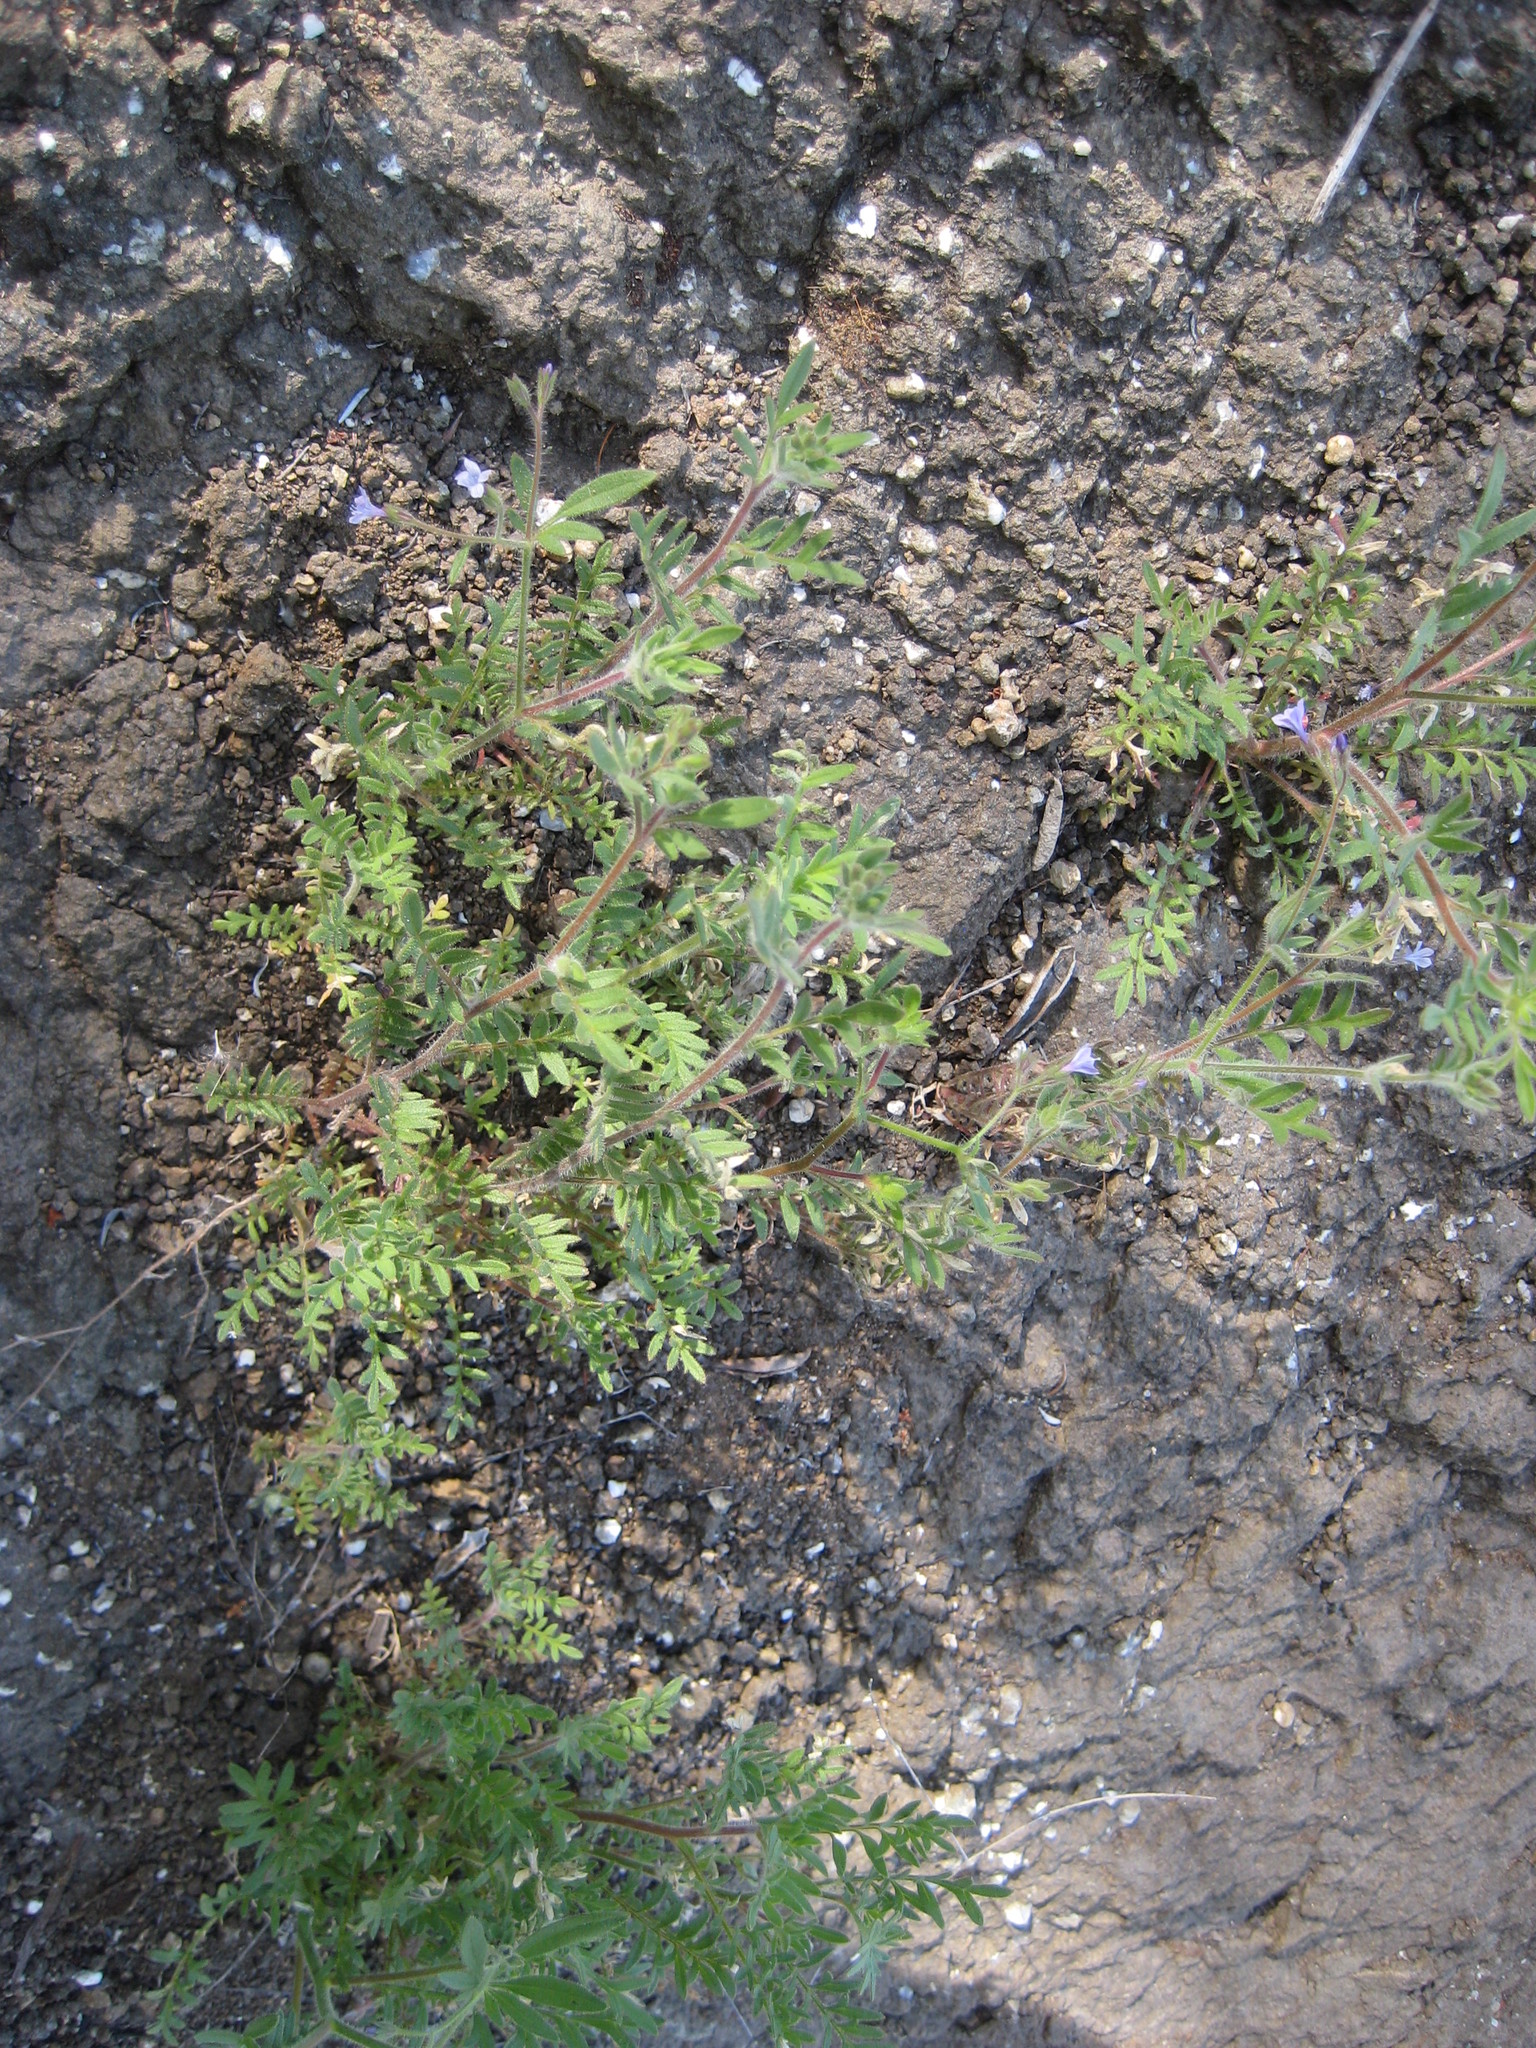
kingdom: Plantae
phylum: Tracheophyta
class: Magnoliopsida
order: Ericales
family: Polemoniaceae
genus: Allophyllum
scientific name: Allophyllum glutinosum
